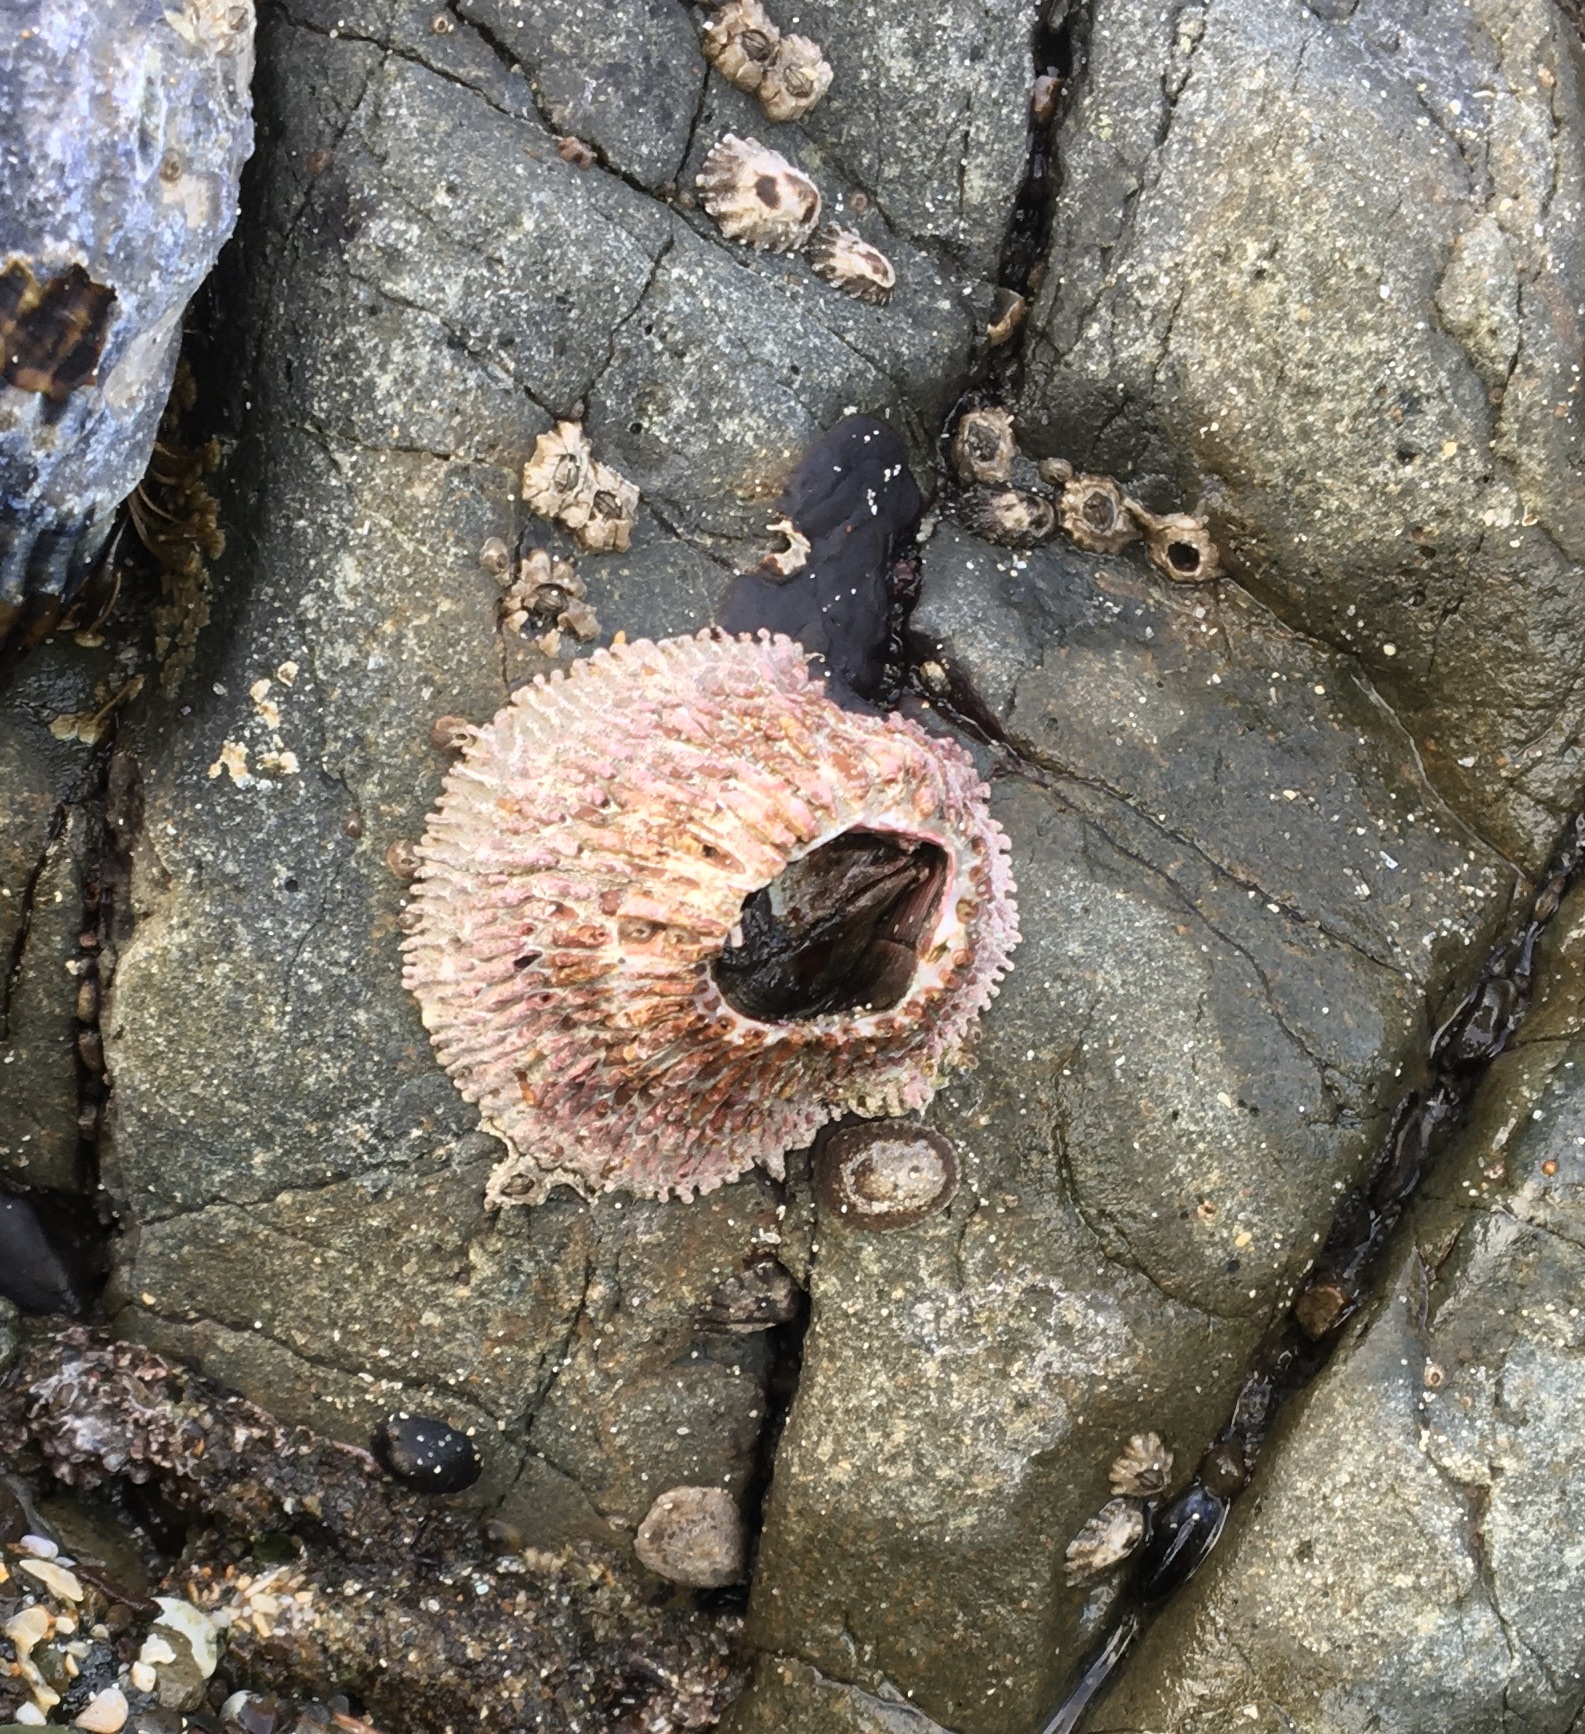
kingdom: Animalia
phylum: Arthropoda
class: Maxillopoda
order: Sessilia
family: Tetraclitidae
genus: Tetraclita
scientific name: Tetraclita rubescens
